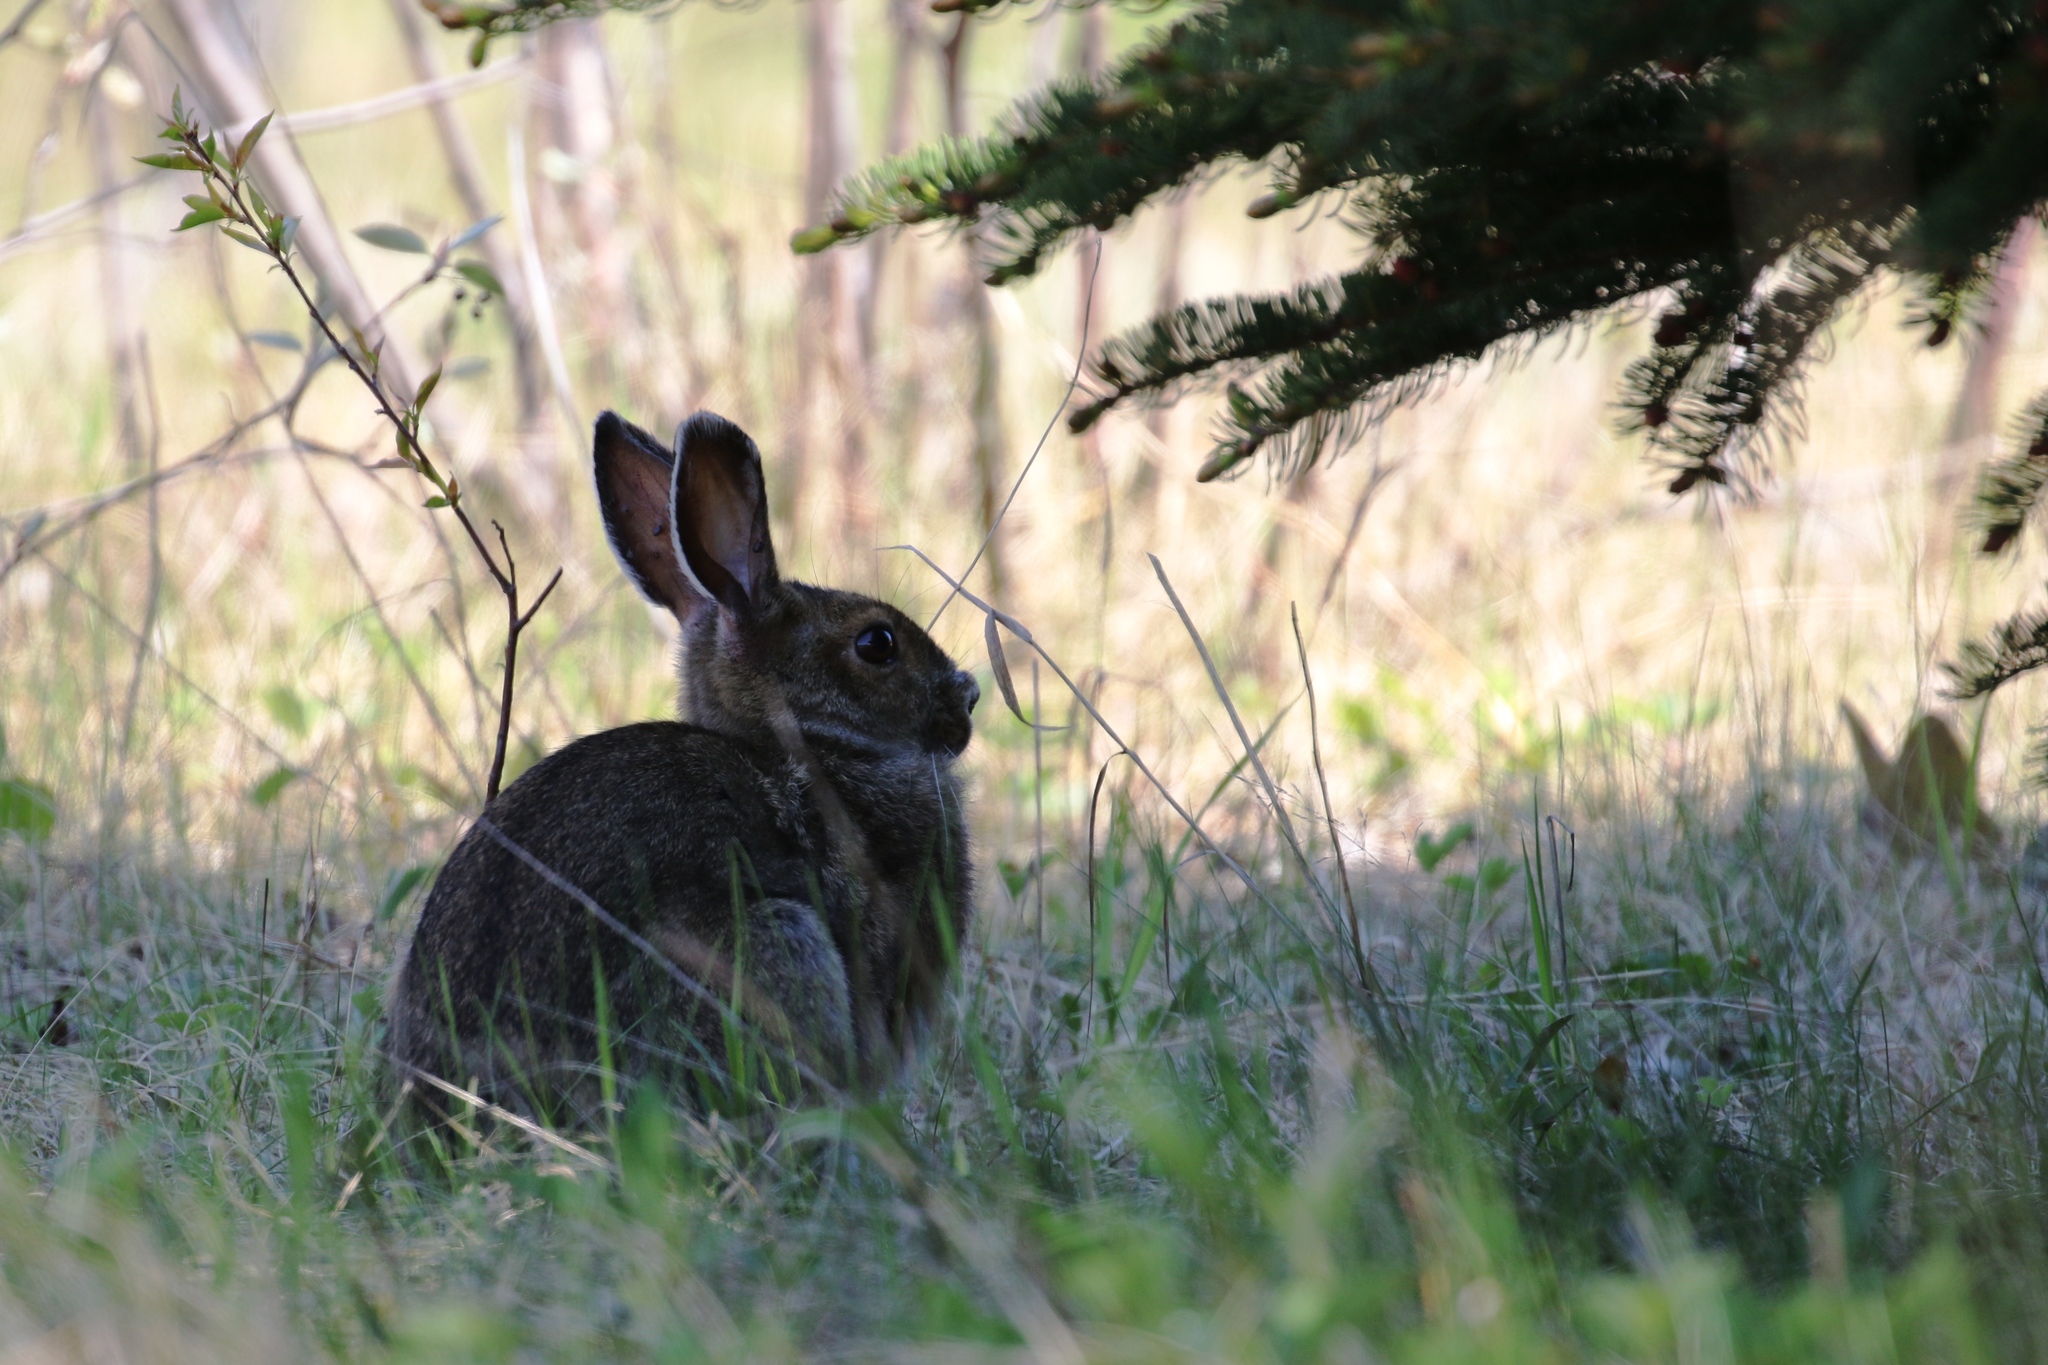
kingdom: Animalia
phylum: Chordata
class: Mammalia
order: Lagomorpha
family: Leporidae
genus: Lepus
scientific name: Lepus americanus
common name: Snowshoe hare
